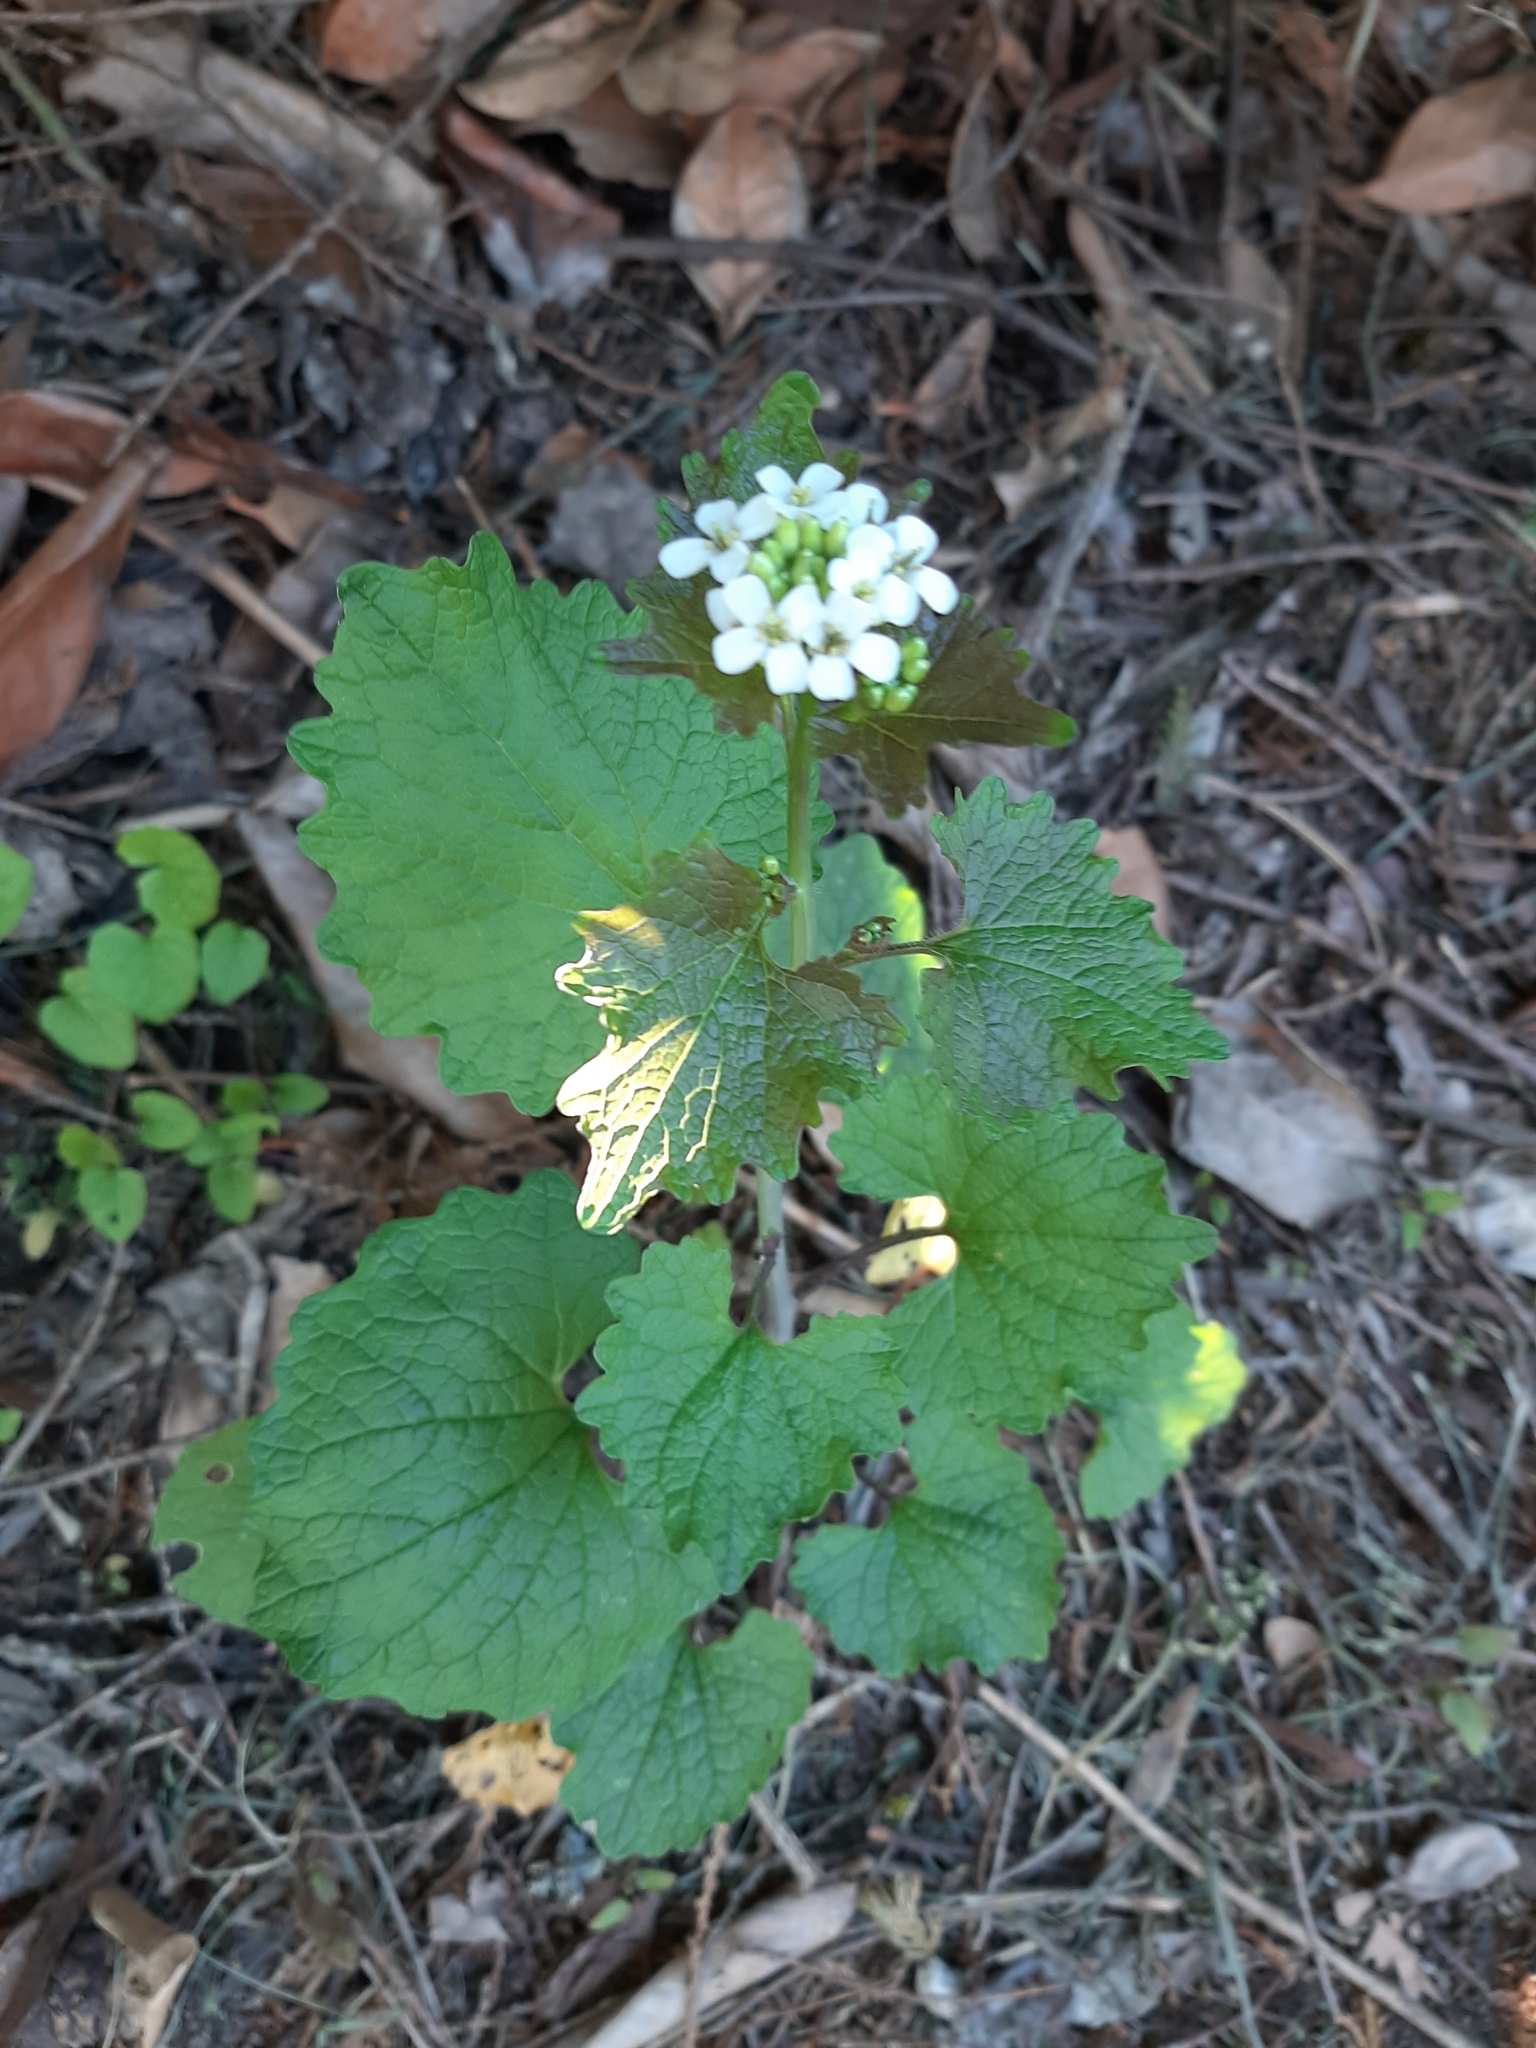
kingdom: Plantae
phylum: Tracheophyta
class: Magnoliopsida
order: Brassicales
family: Brassicaceae
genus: Alliaria
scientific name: Alliaria petiolata
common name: Garlic mustard
